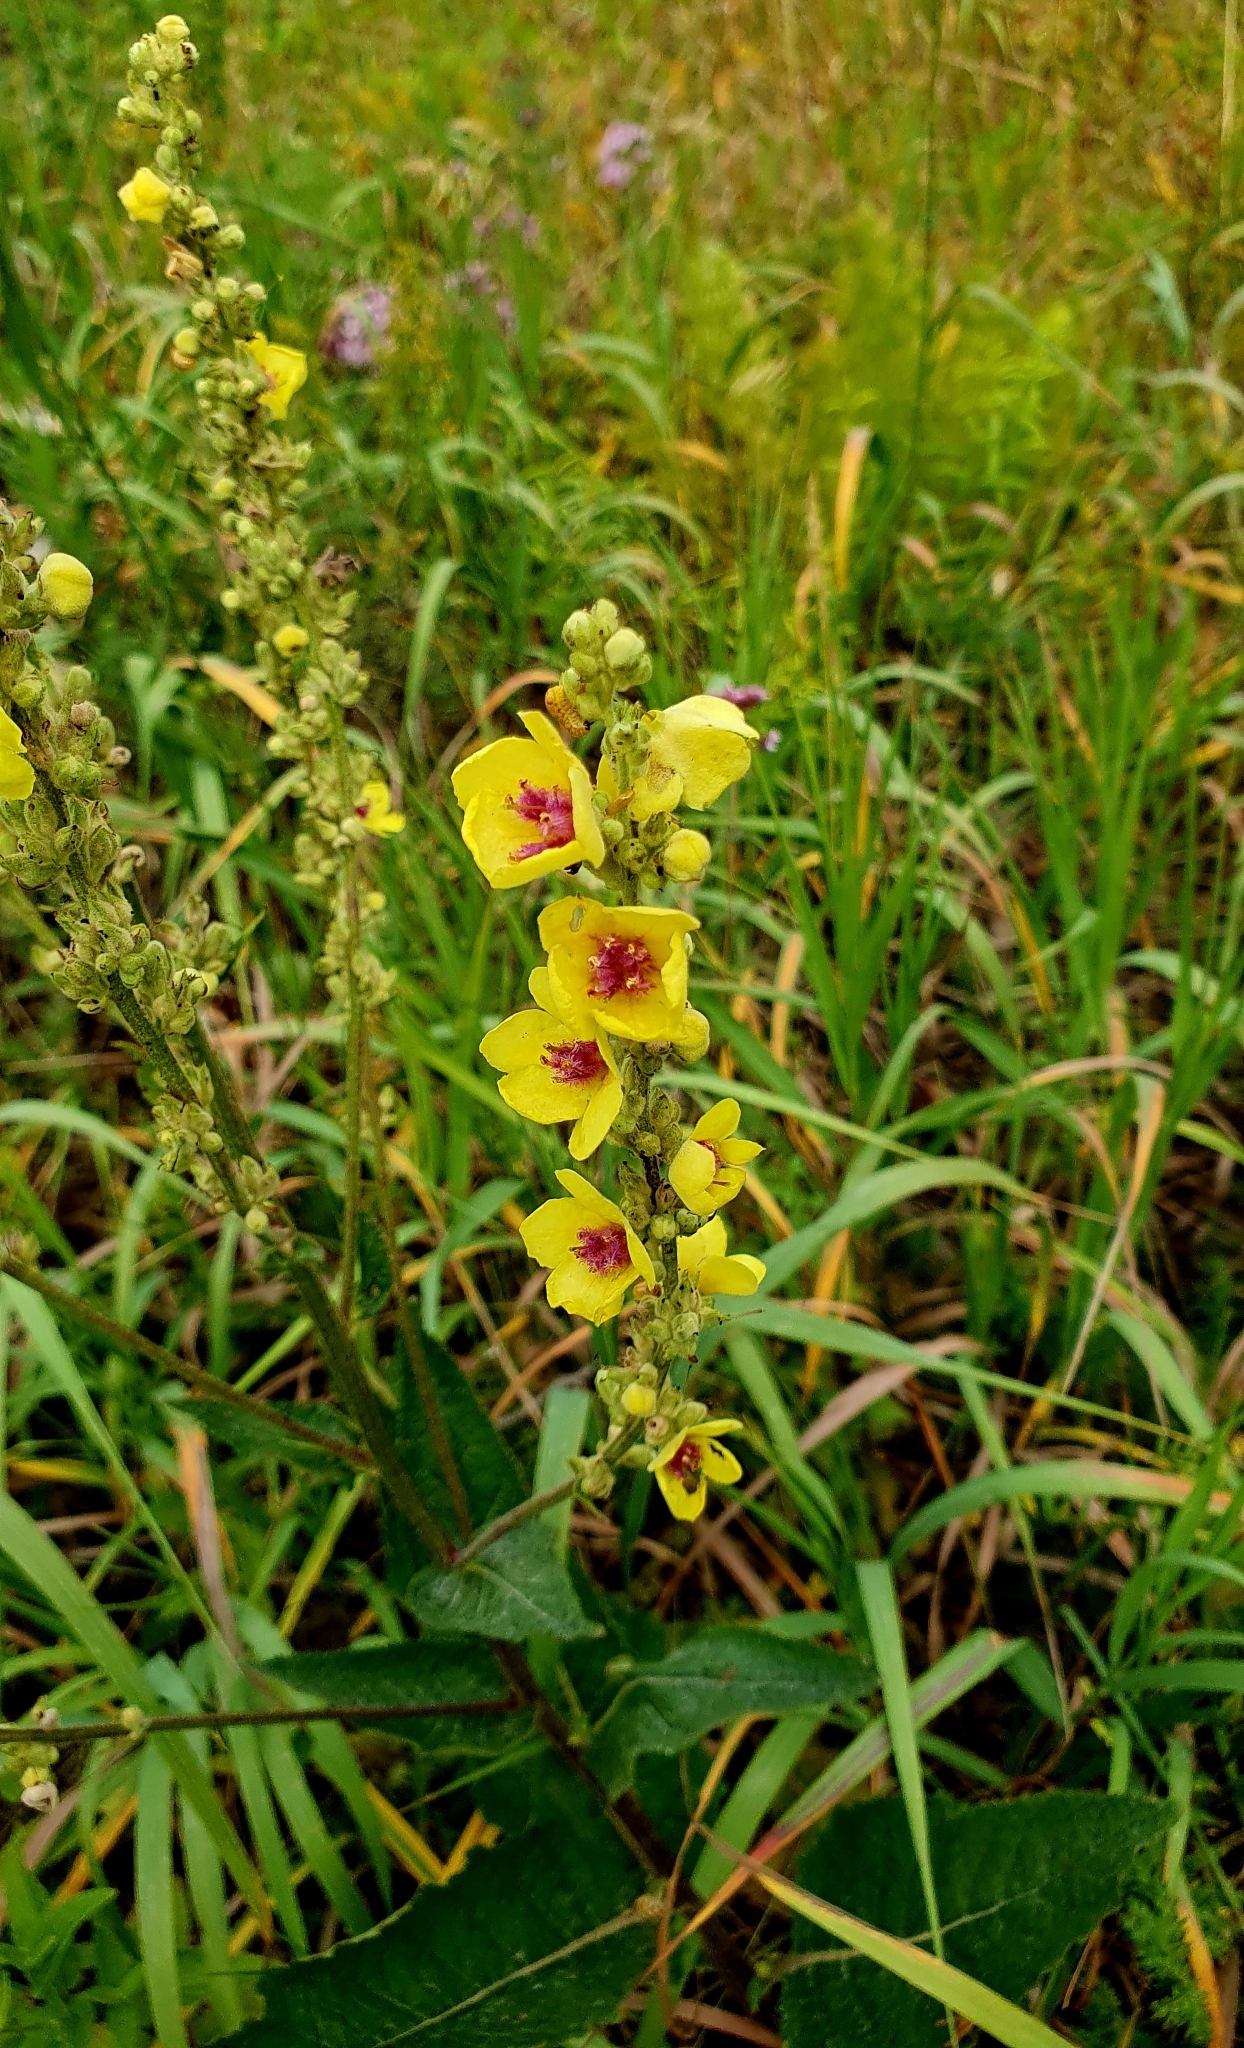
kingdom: Plantae
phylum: Tracheophyta
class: Magnoliopsida
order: Lamiales
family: Scrophulariaceae
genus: Verbascum
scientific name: Verbascum chaixii
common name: Nettle-leaved mullein
